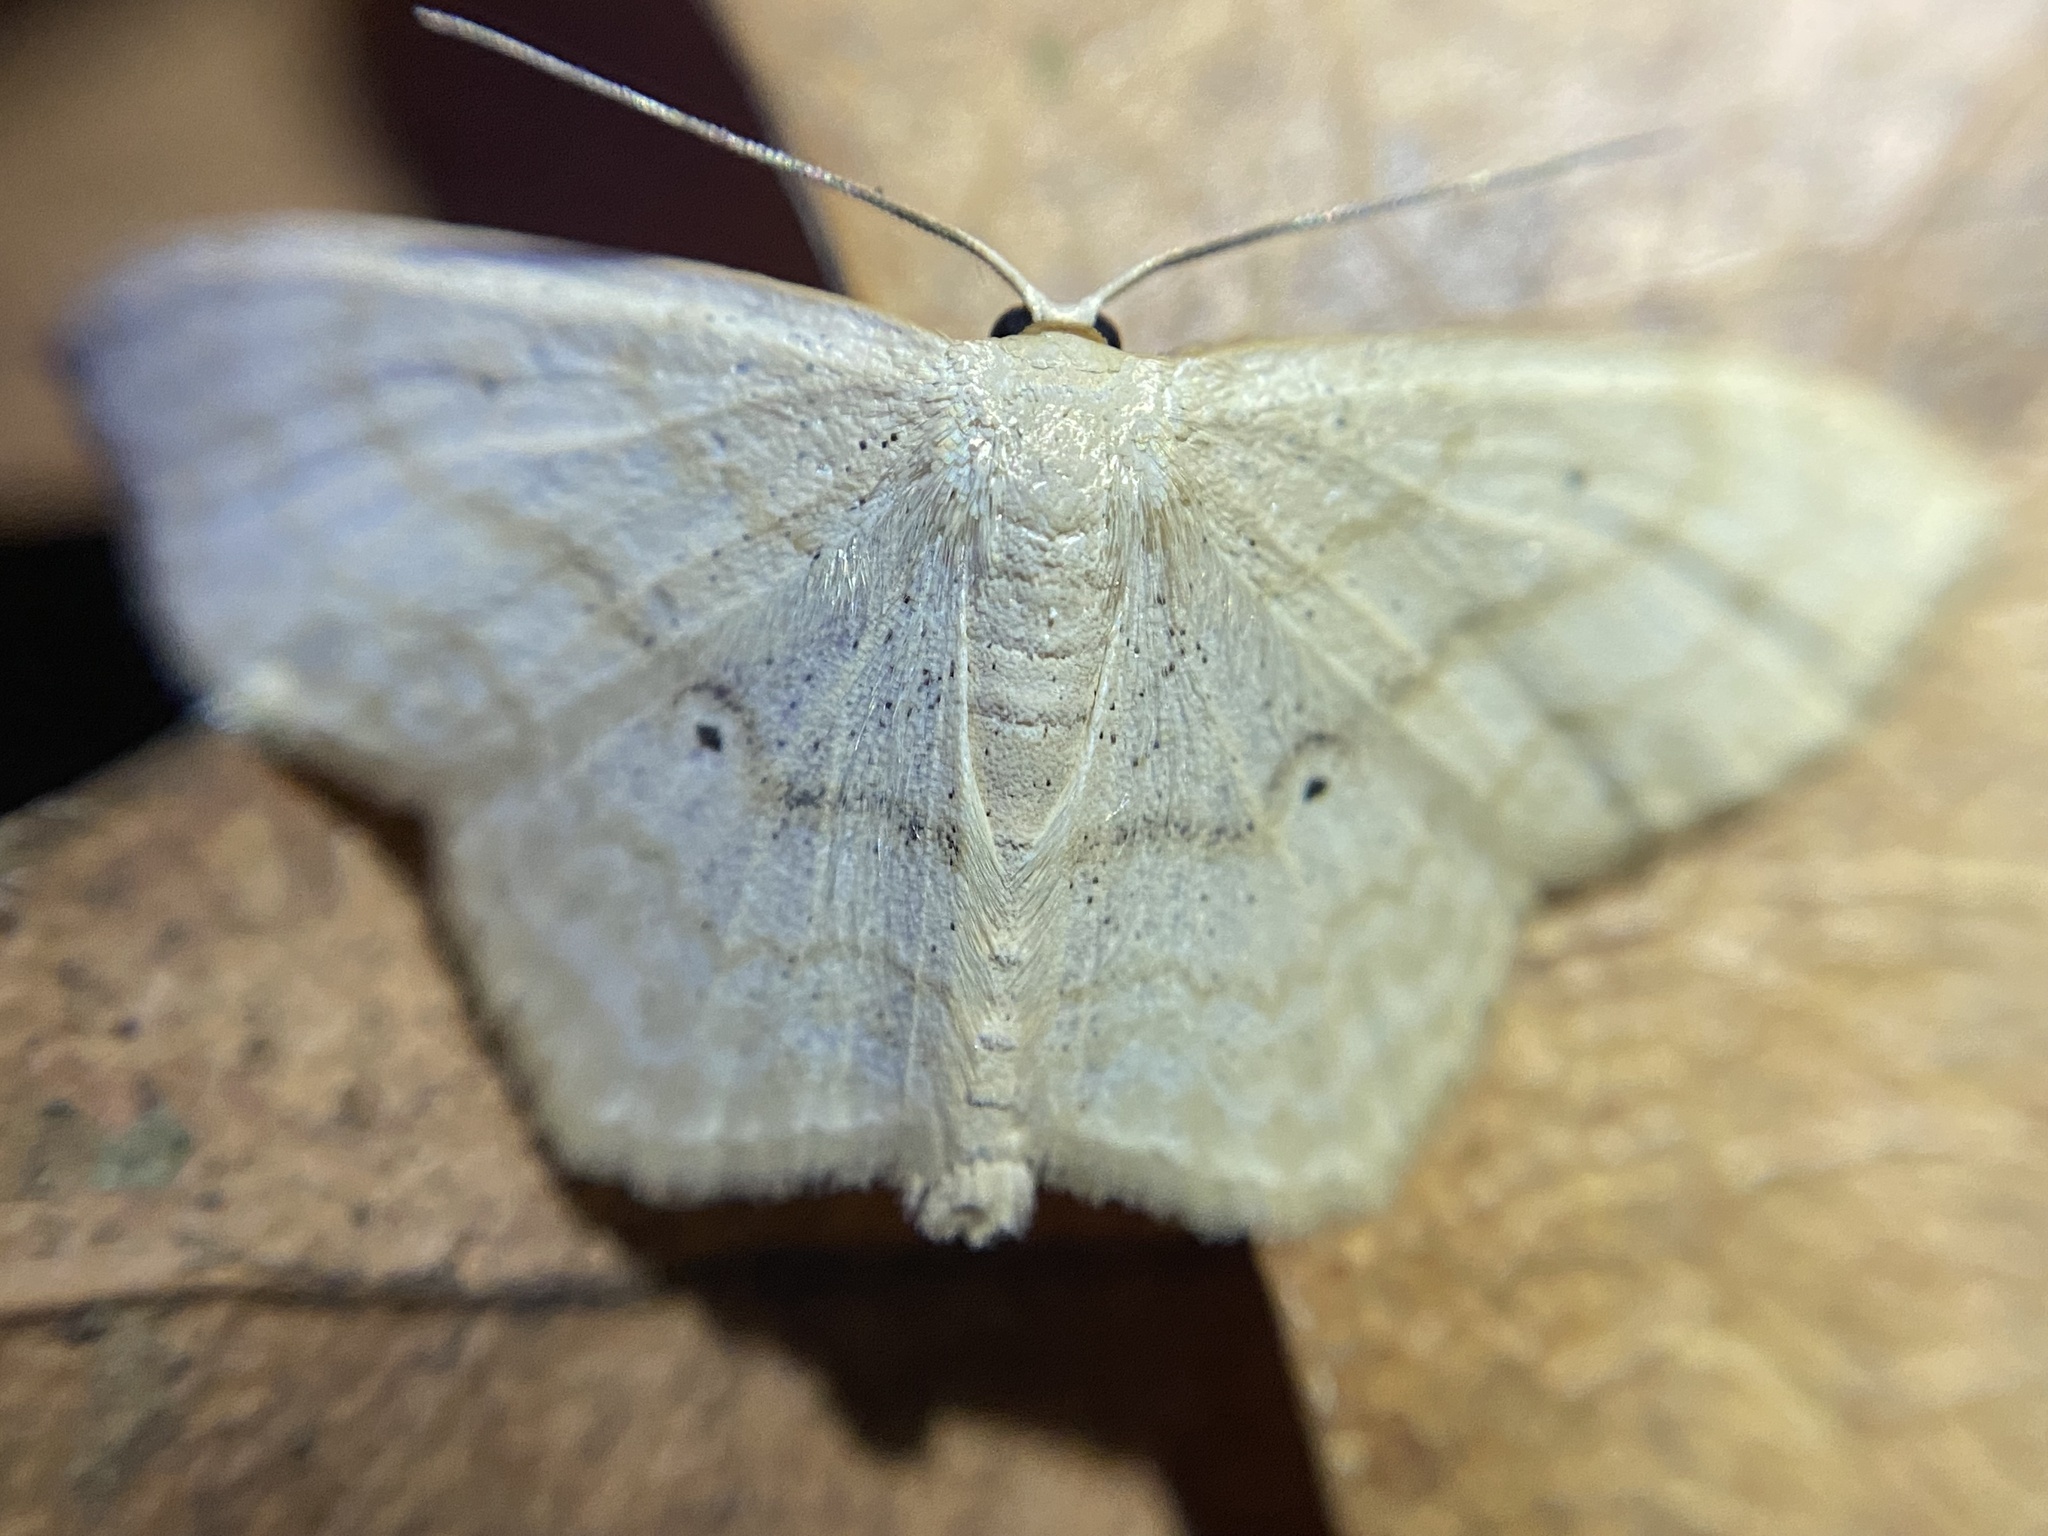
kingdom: Animalia
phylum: Arthropoda
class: Insecta
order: Lepidoptera
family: Geometridae
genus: Scopula
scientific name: Scopula limboundata
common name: Large lace border
